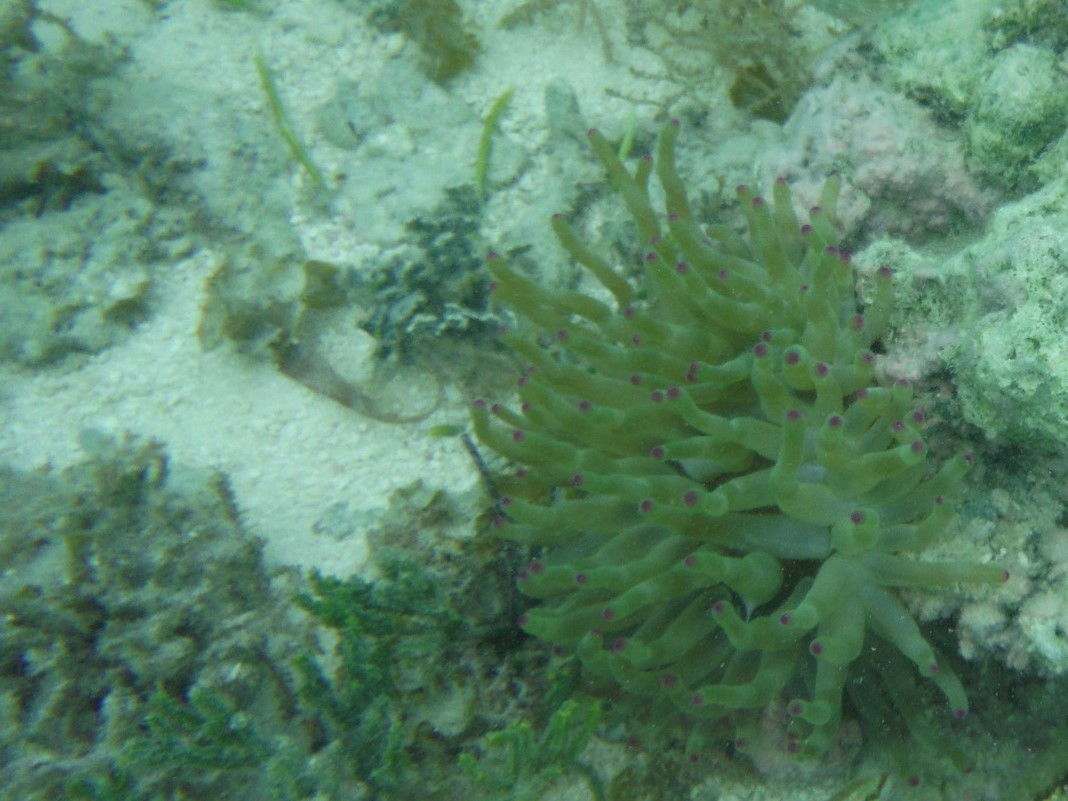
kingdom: Animalia
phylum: Cnidaria
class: Anthozoa
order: Actiniaria
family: Actiniidae
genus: Condylactis
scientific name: Condylactis gigantea
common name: Giant caribbean anemone
